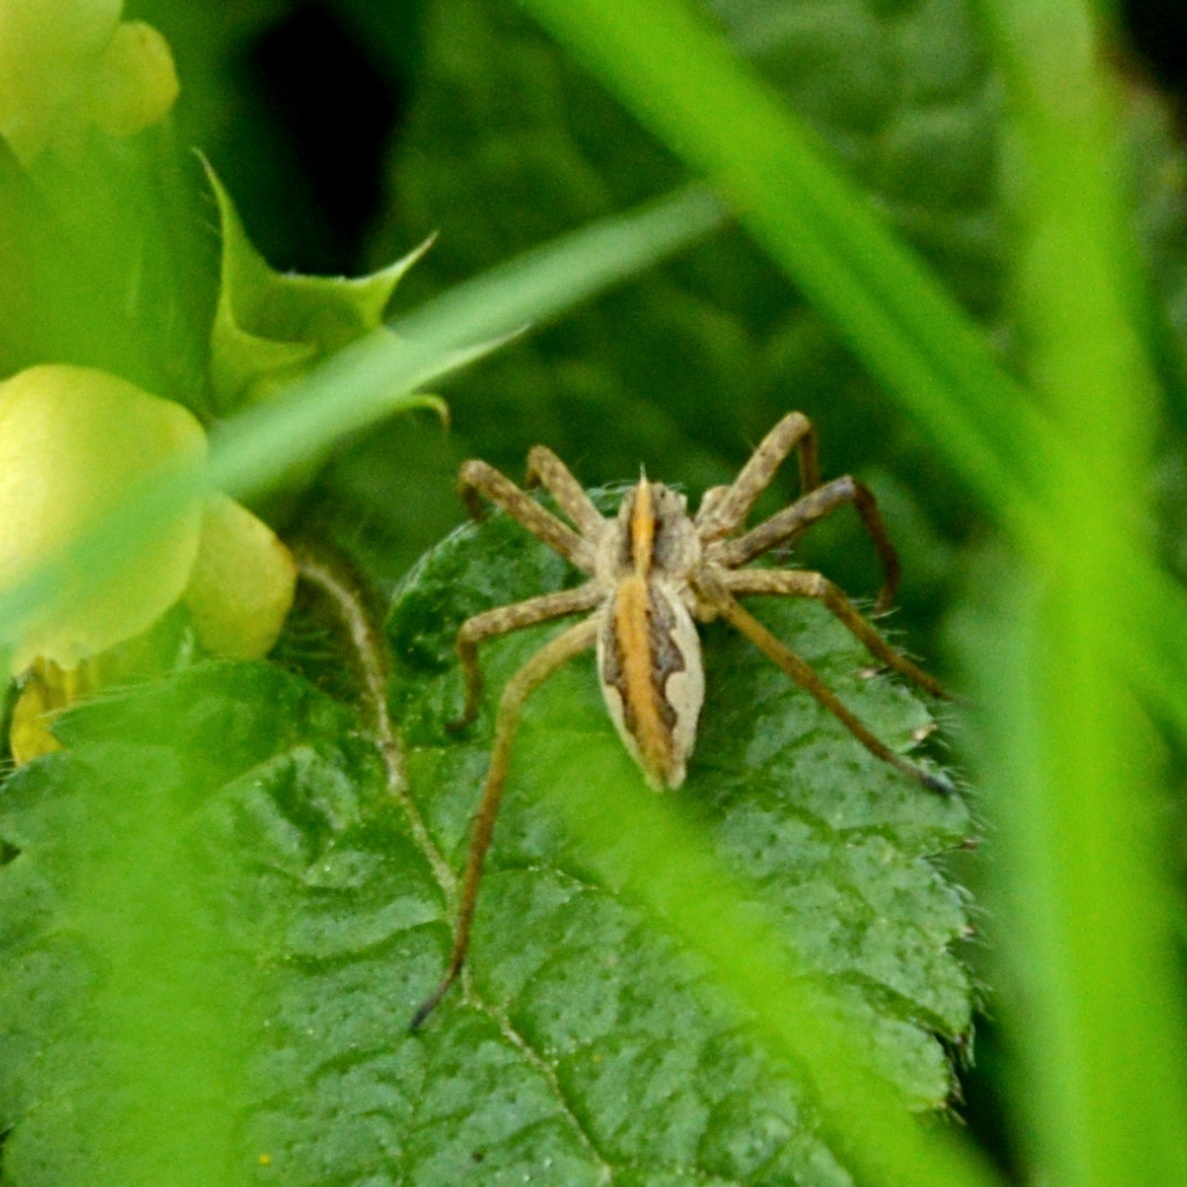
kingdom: Animalia
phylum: Arthropoda
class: Arachnida
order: Araneae
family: Pisauridae
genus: Pisaura
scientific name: Pisaura mirabilis
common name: Tent spider
